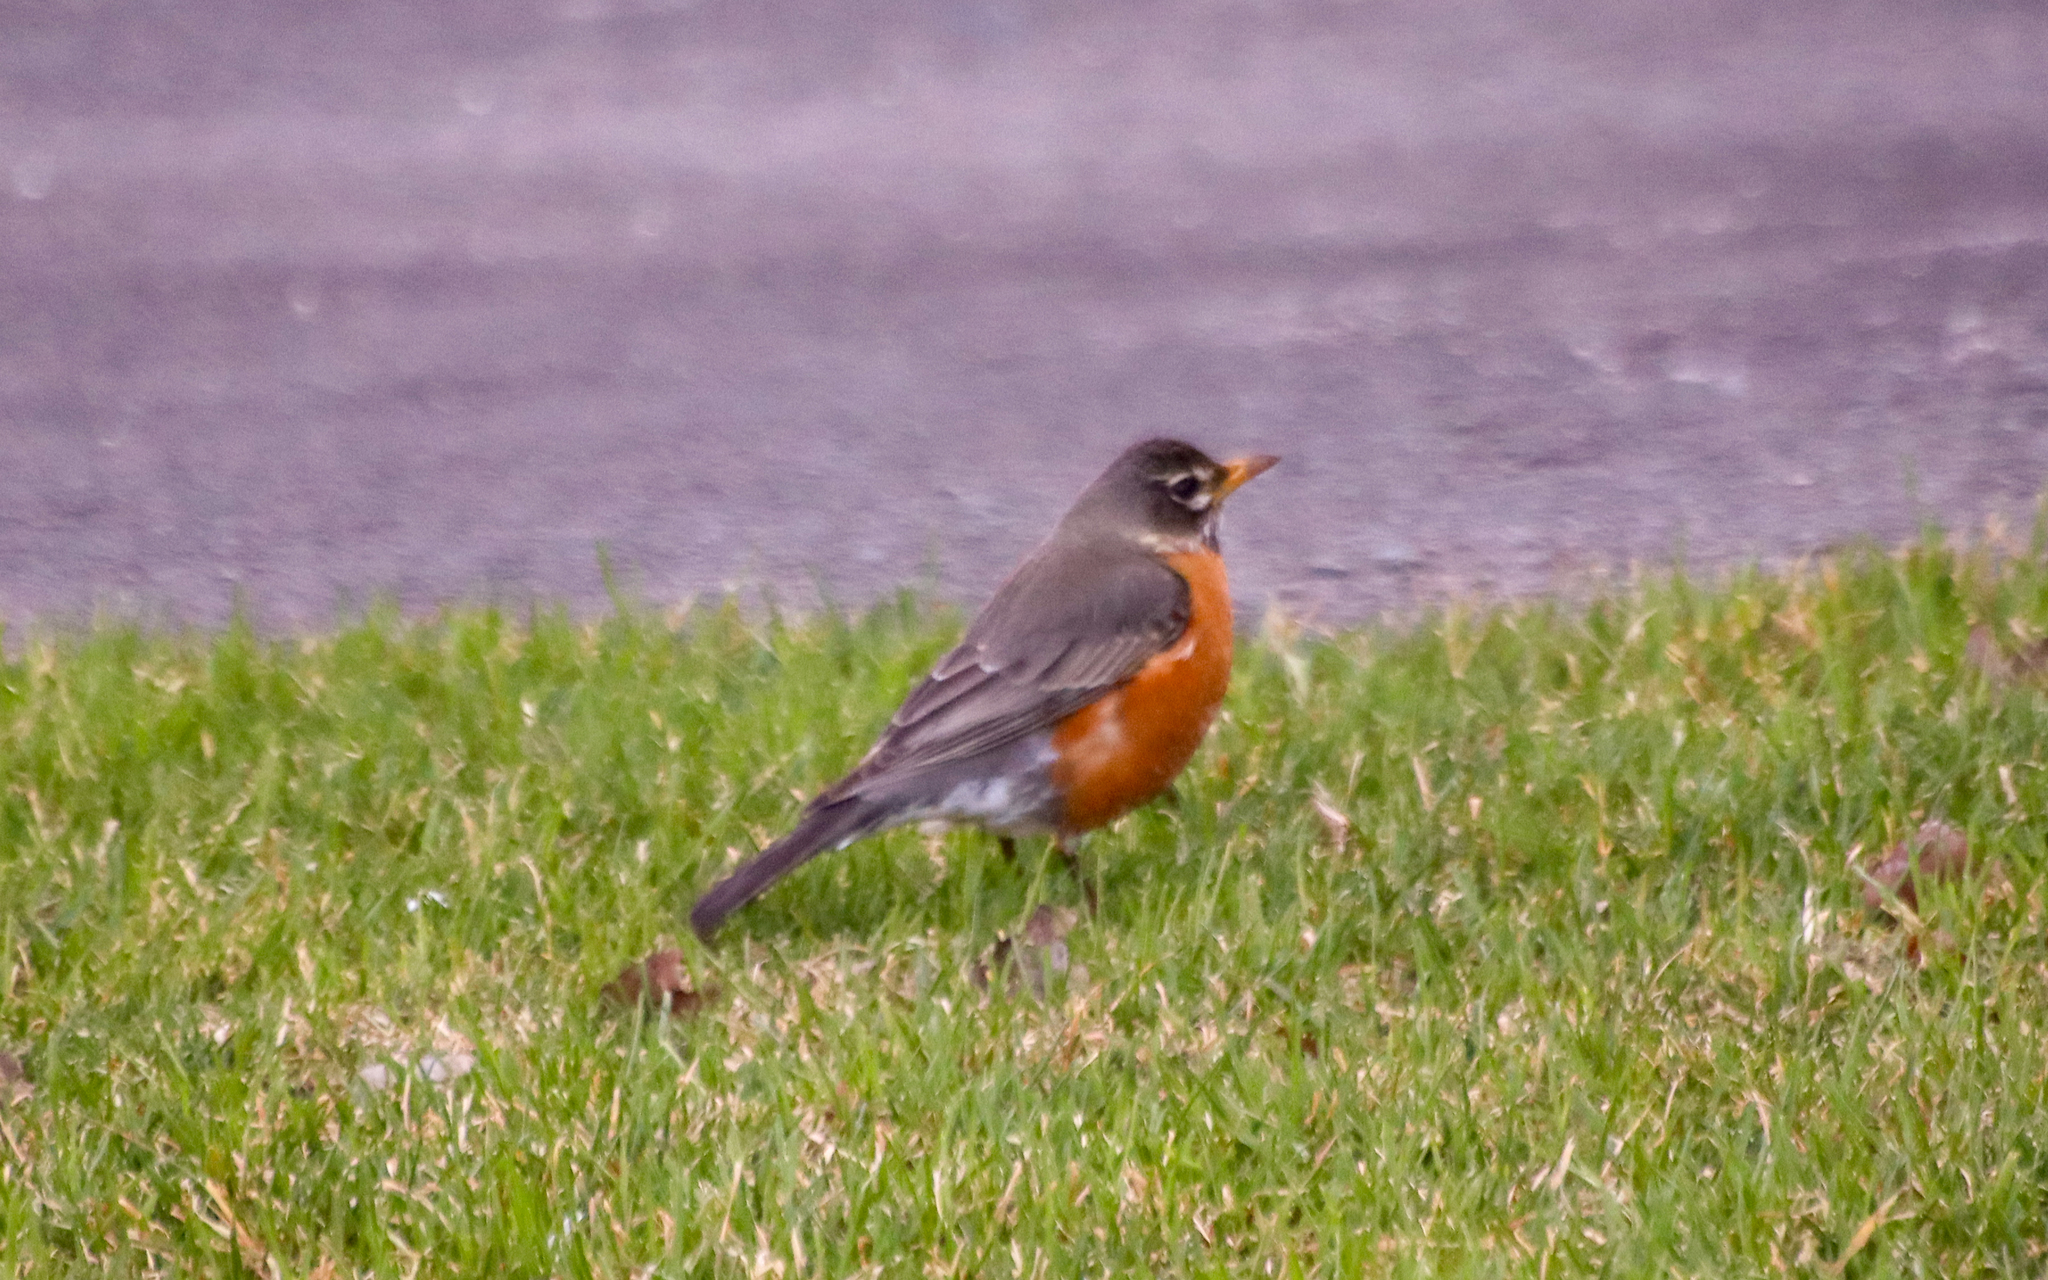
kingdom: Animalia
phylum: Chordata
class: Aves
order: Passeriformes
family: Turdidae
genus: Turdus
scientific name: Turdus migratorius
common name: American robin
